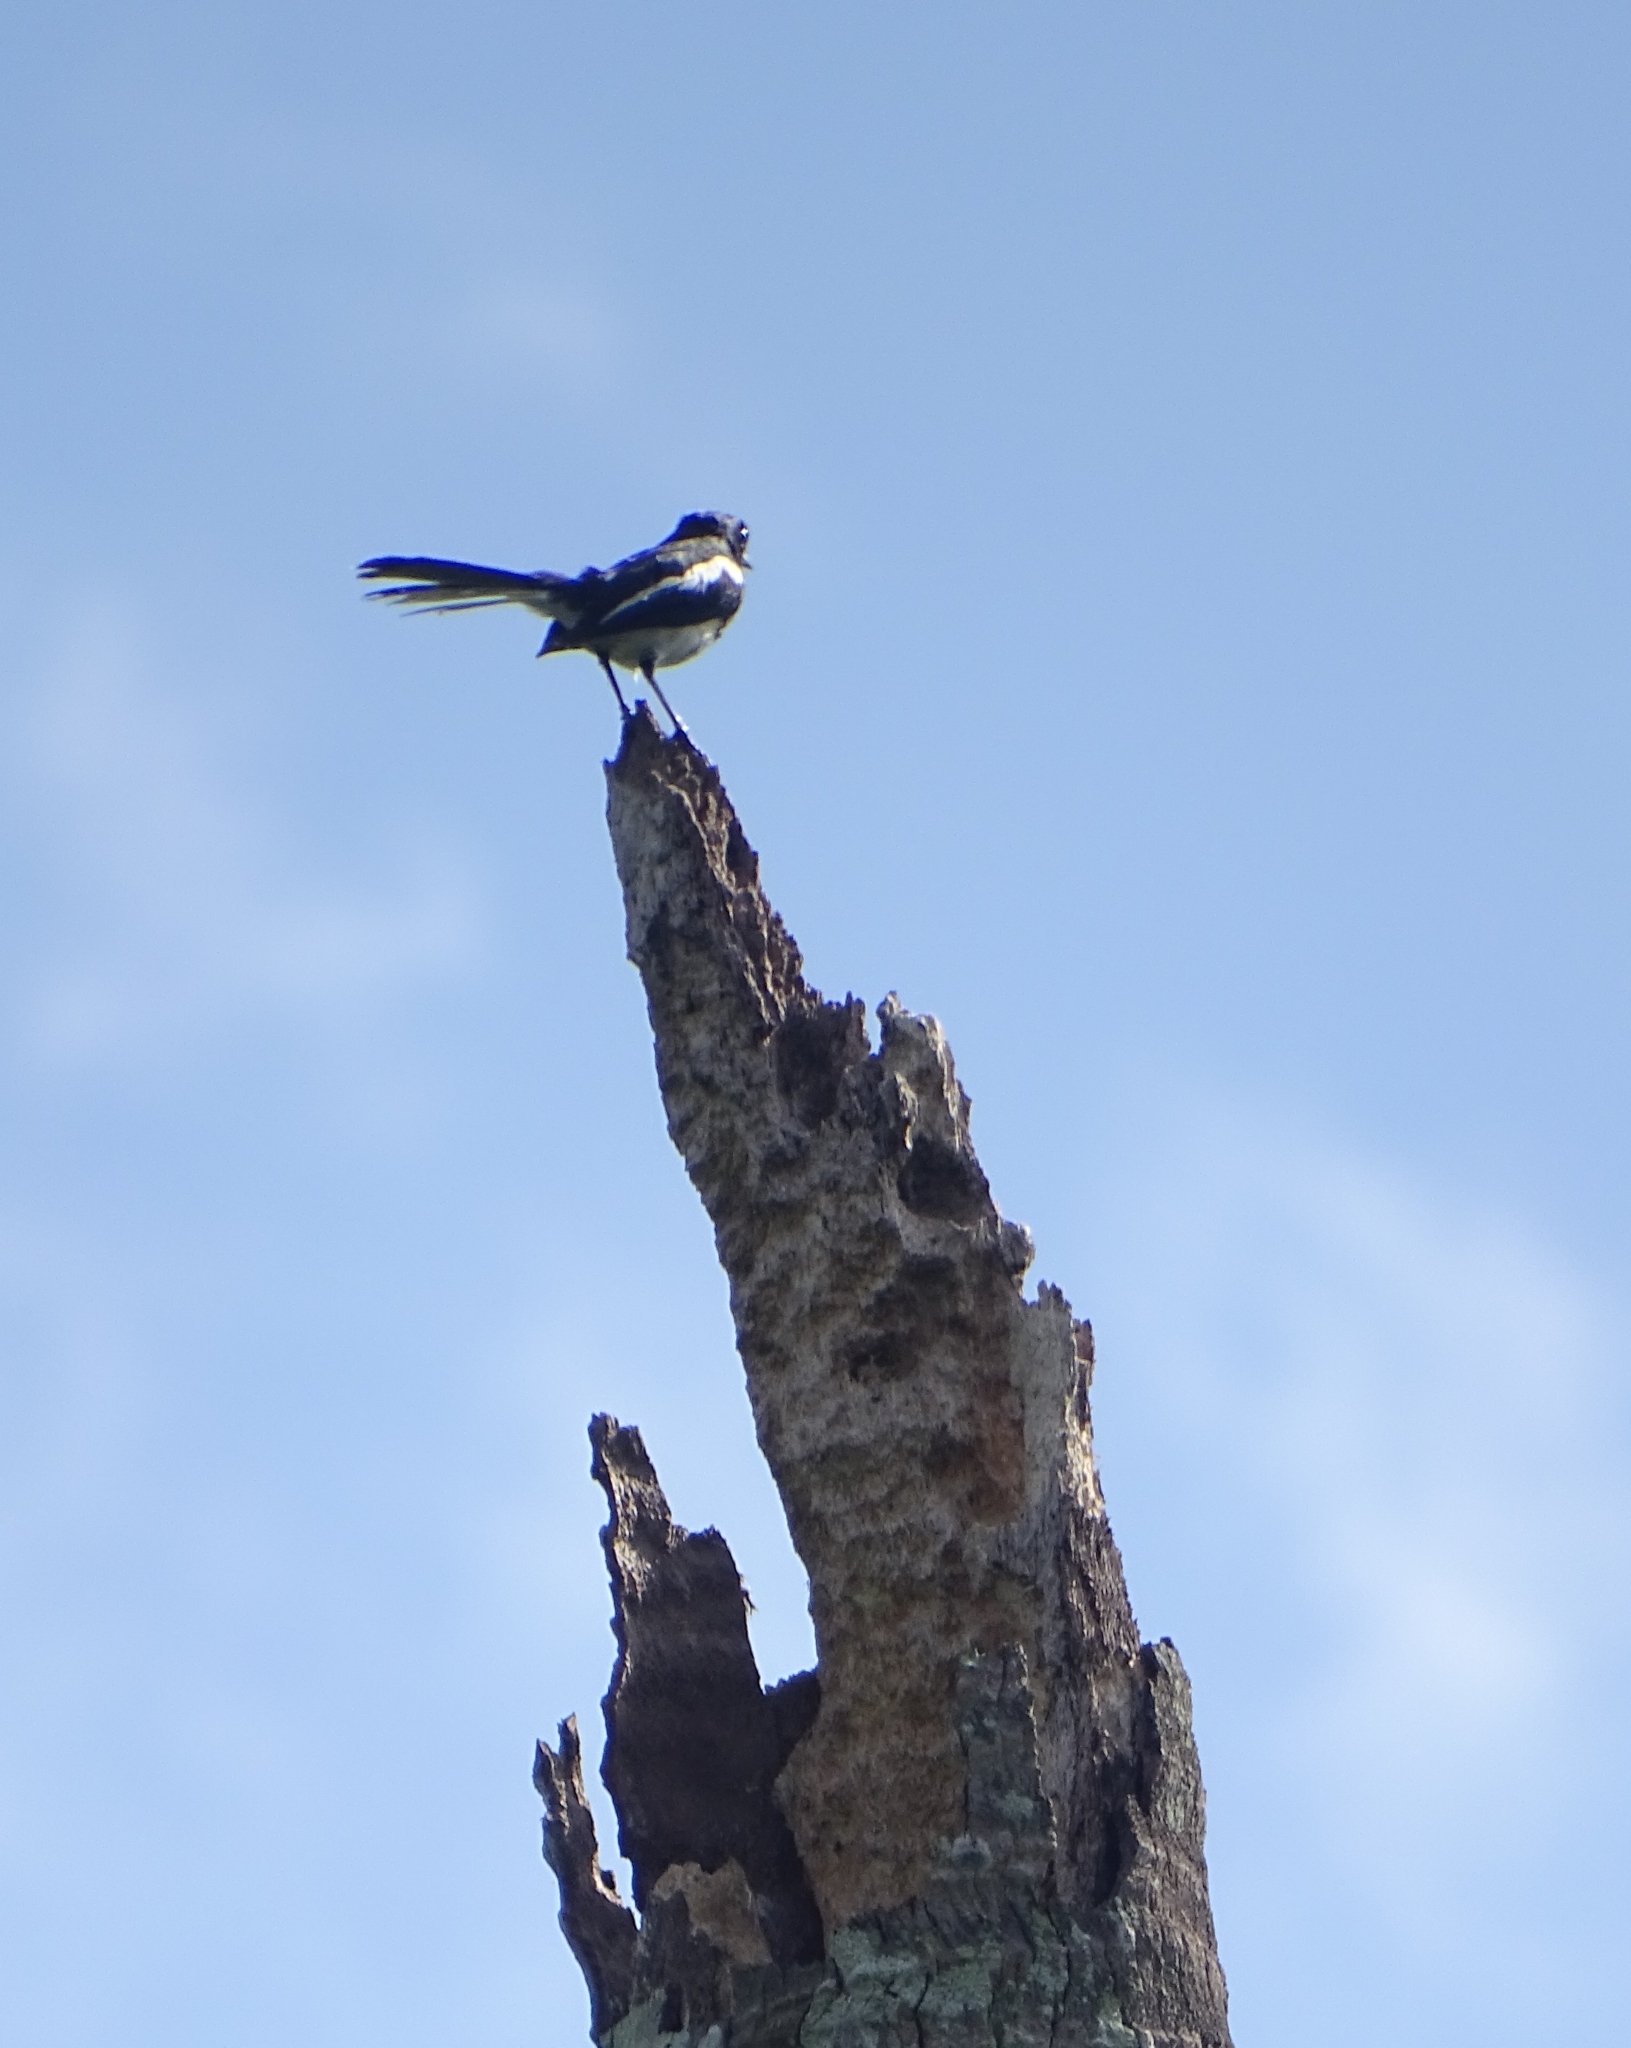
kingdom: Animalia
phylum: Chordata
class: Aves
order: Passeriformes
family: Muscicapidae
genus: Copsychus
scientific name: Copsychus saularis
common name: Oriental magpie-robin
